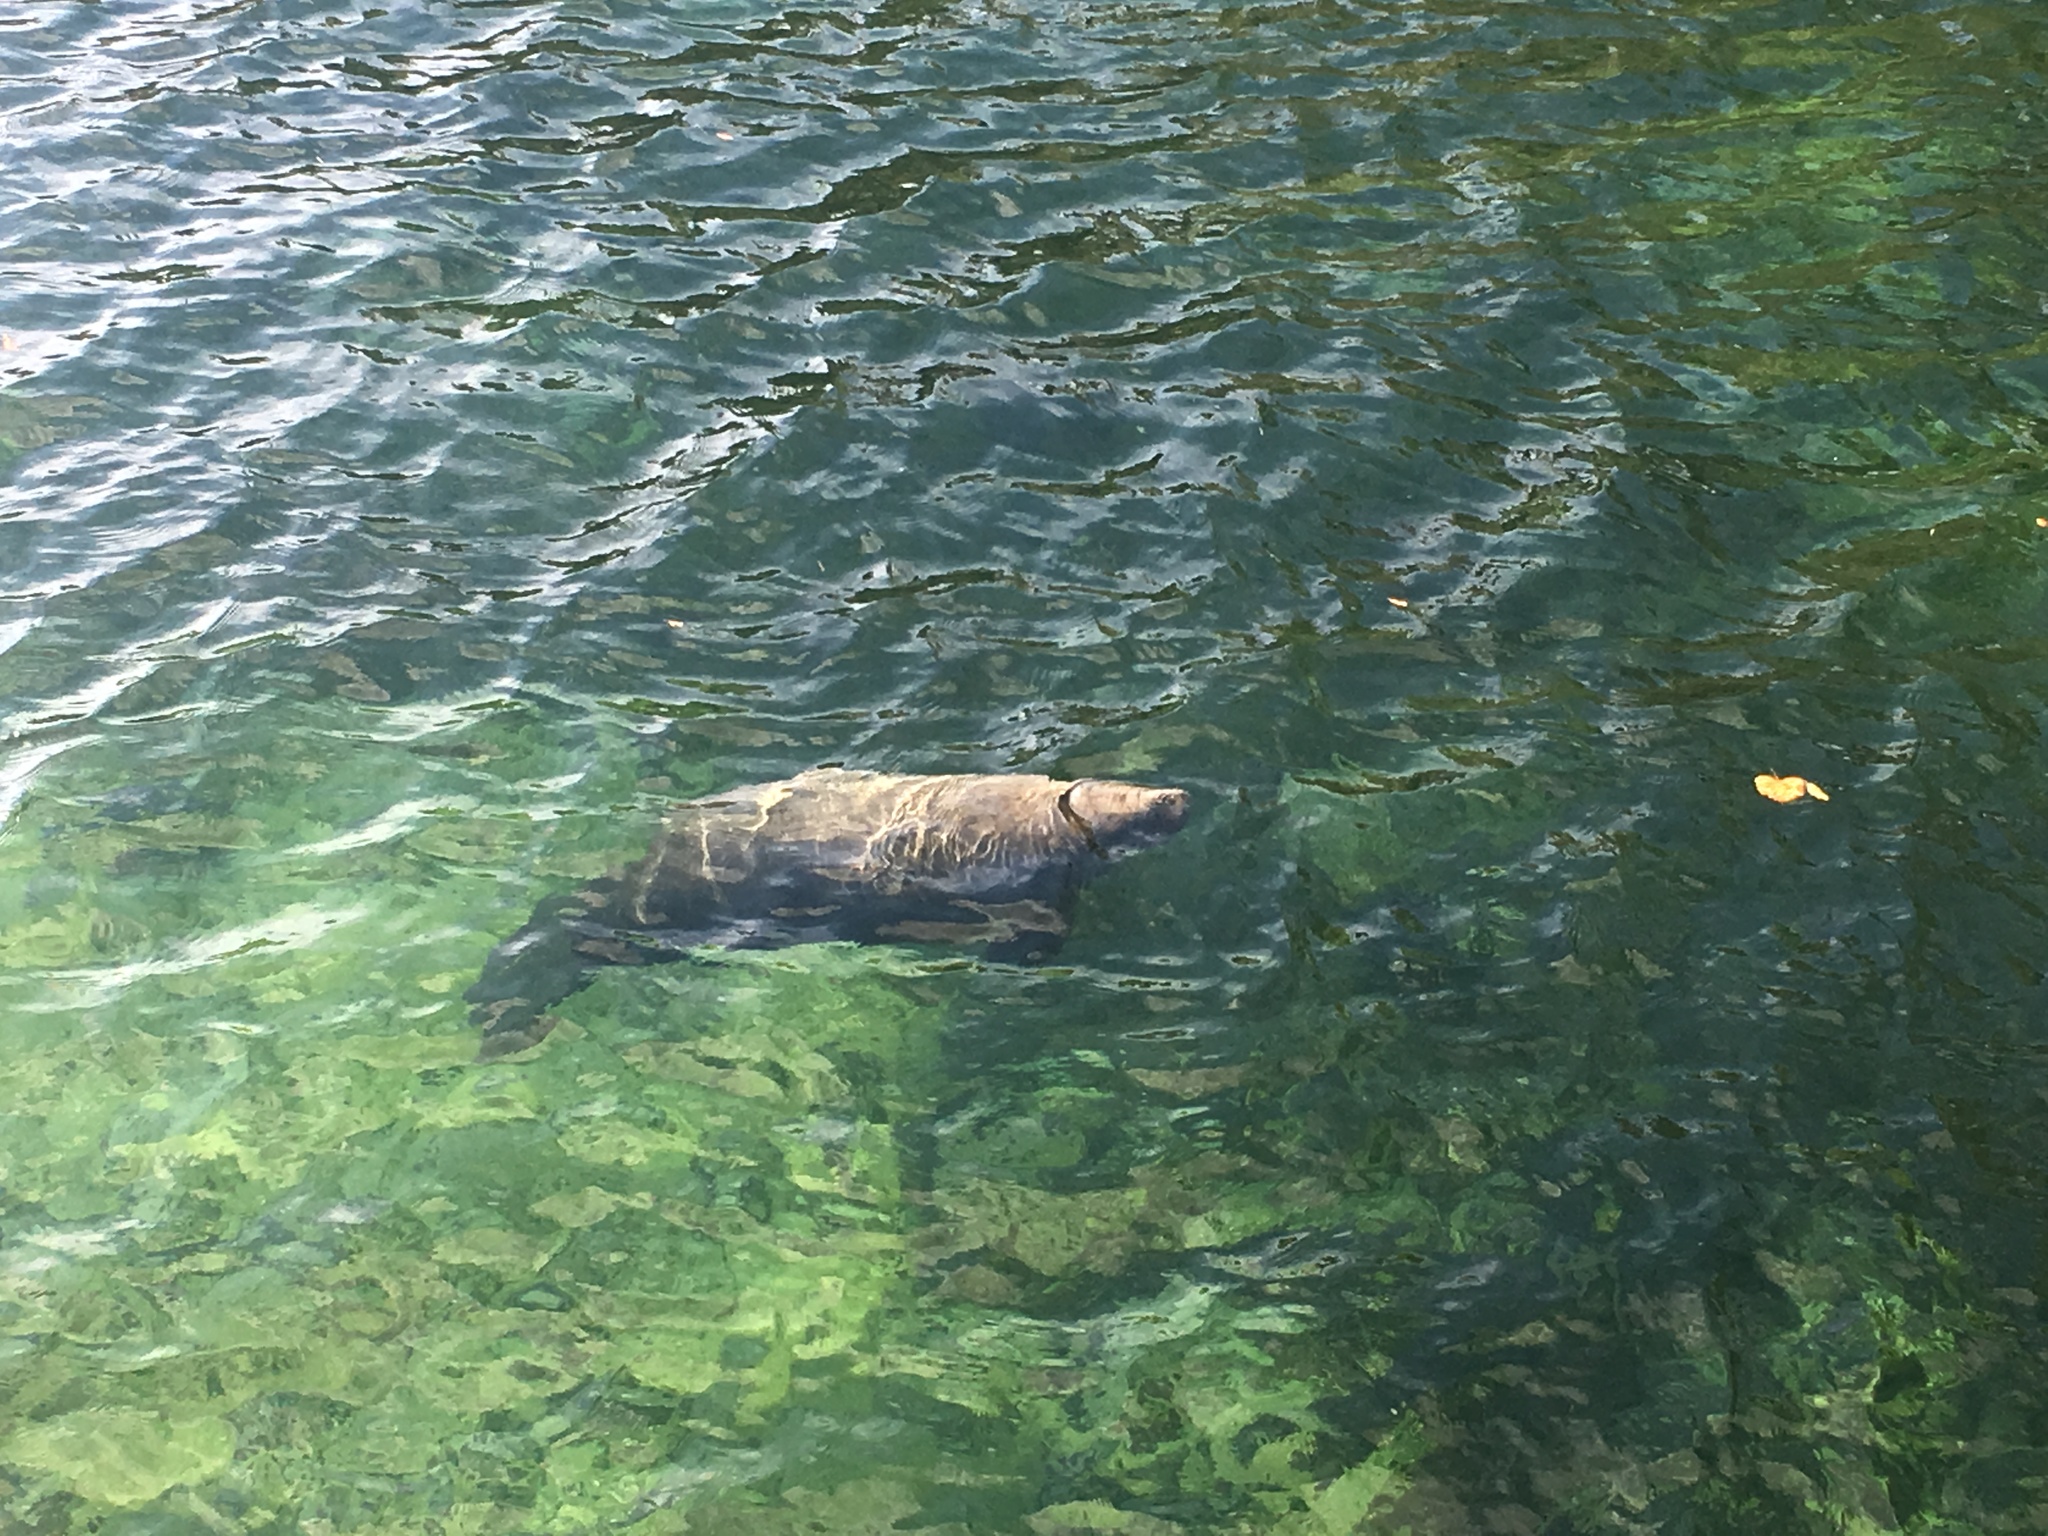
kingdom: Animalia
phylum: Chordata
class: Mammalia
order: Sirenia
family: Trichechidae
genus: Trichechus
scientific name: Trichechus manatus
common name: West indian manatee
